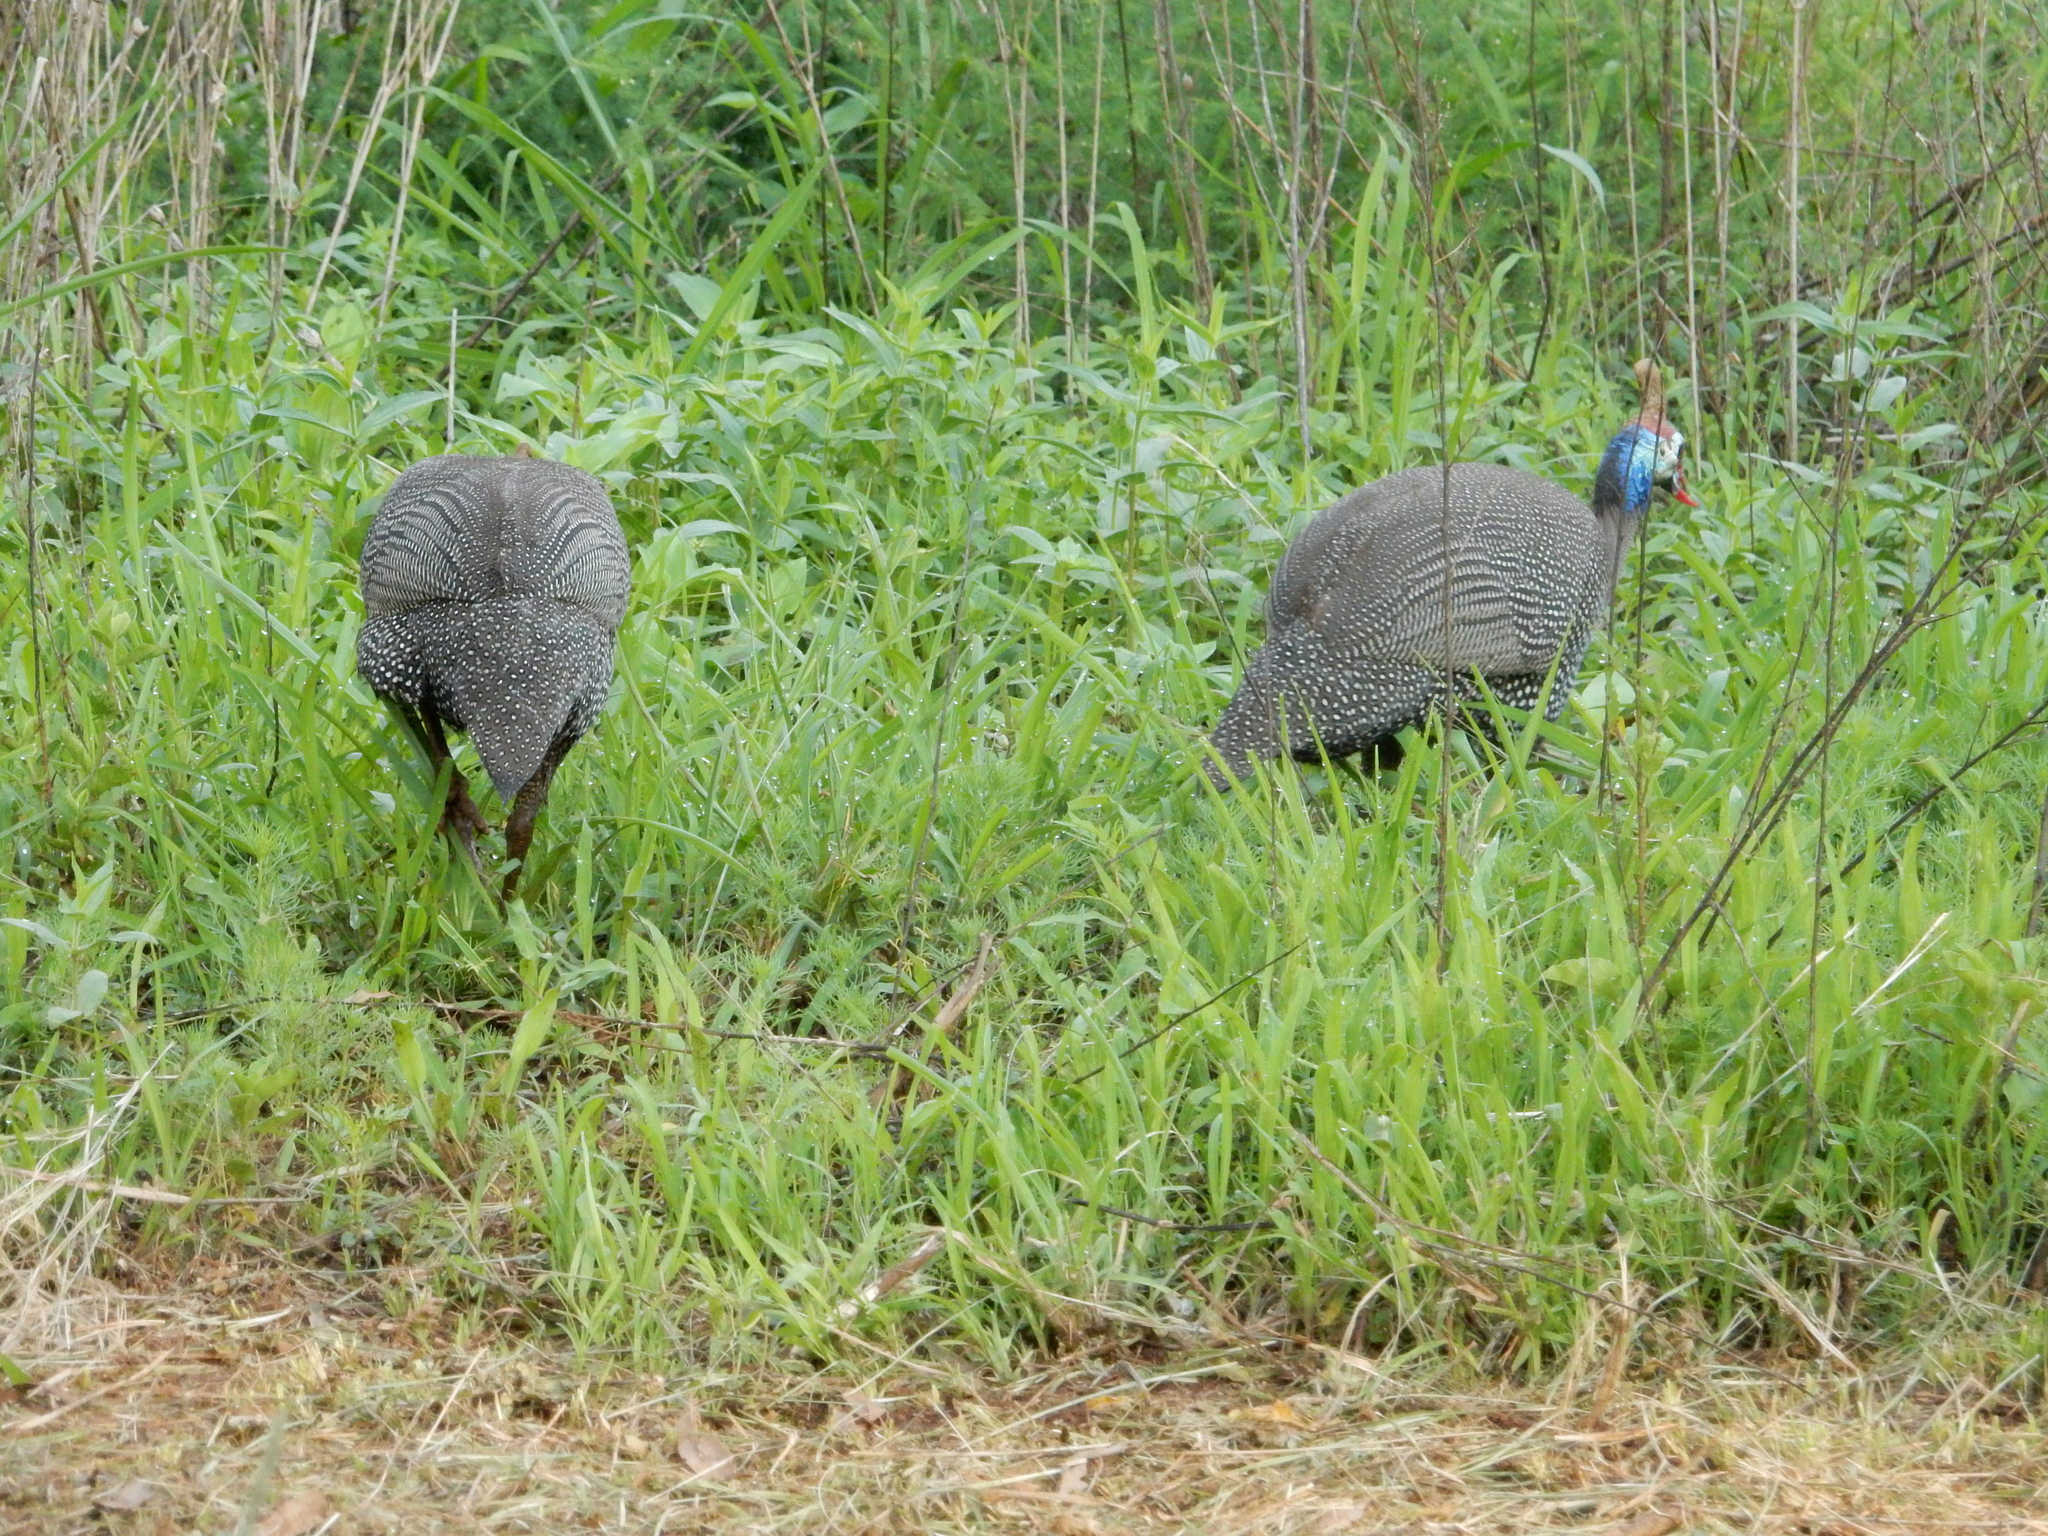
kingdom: Animalia
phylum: Chordata
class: Aves
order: Galliformes
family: Numididae
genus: Numida
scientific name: Numida meleagris
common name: Helmeted guineafowl
